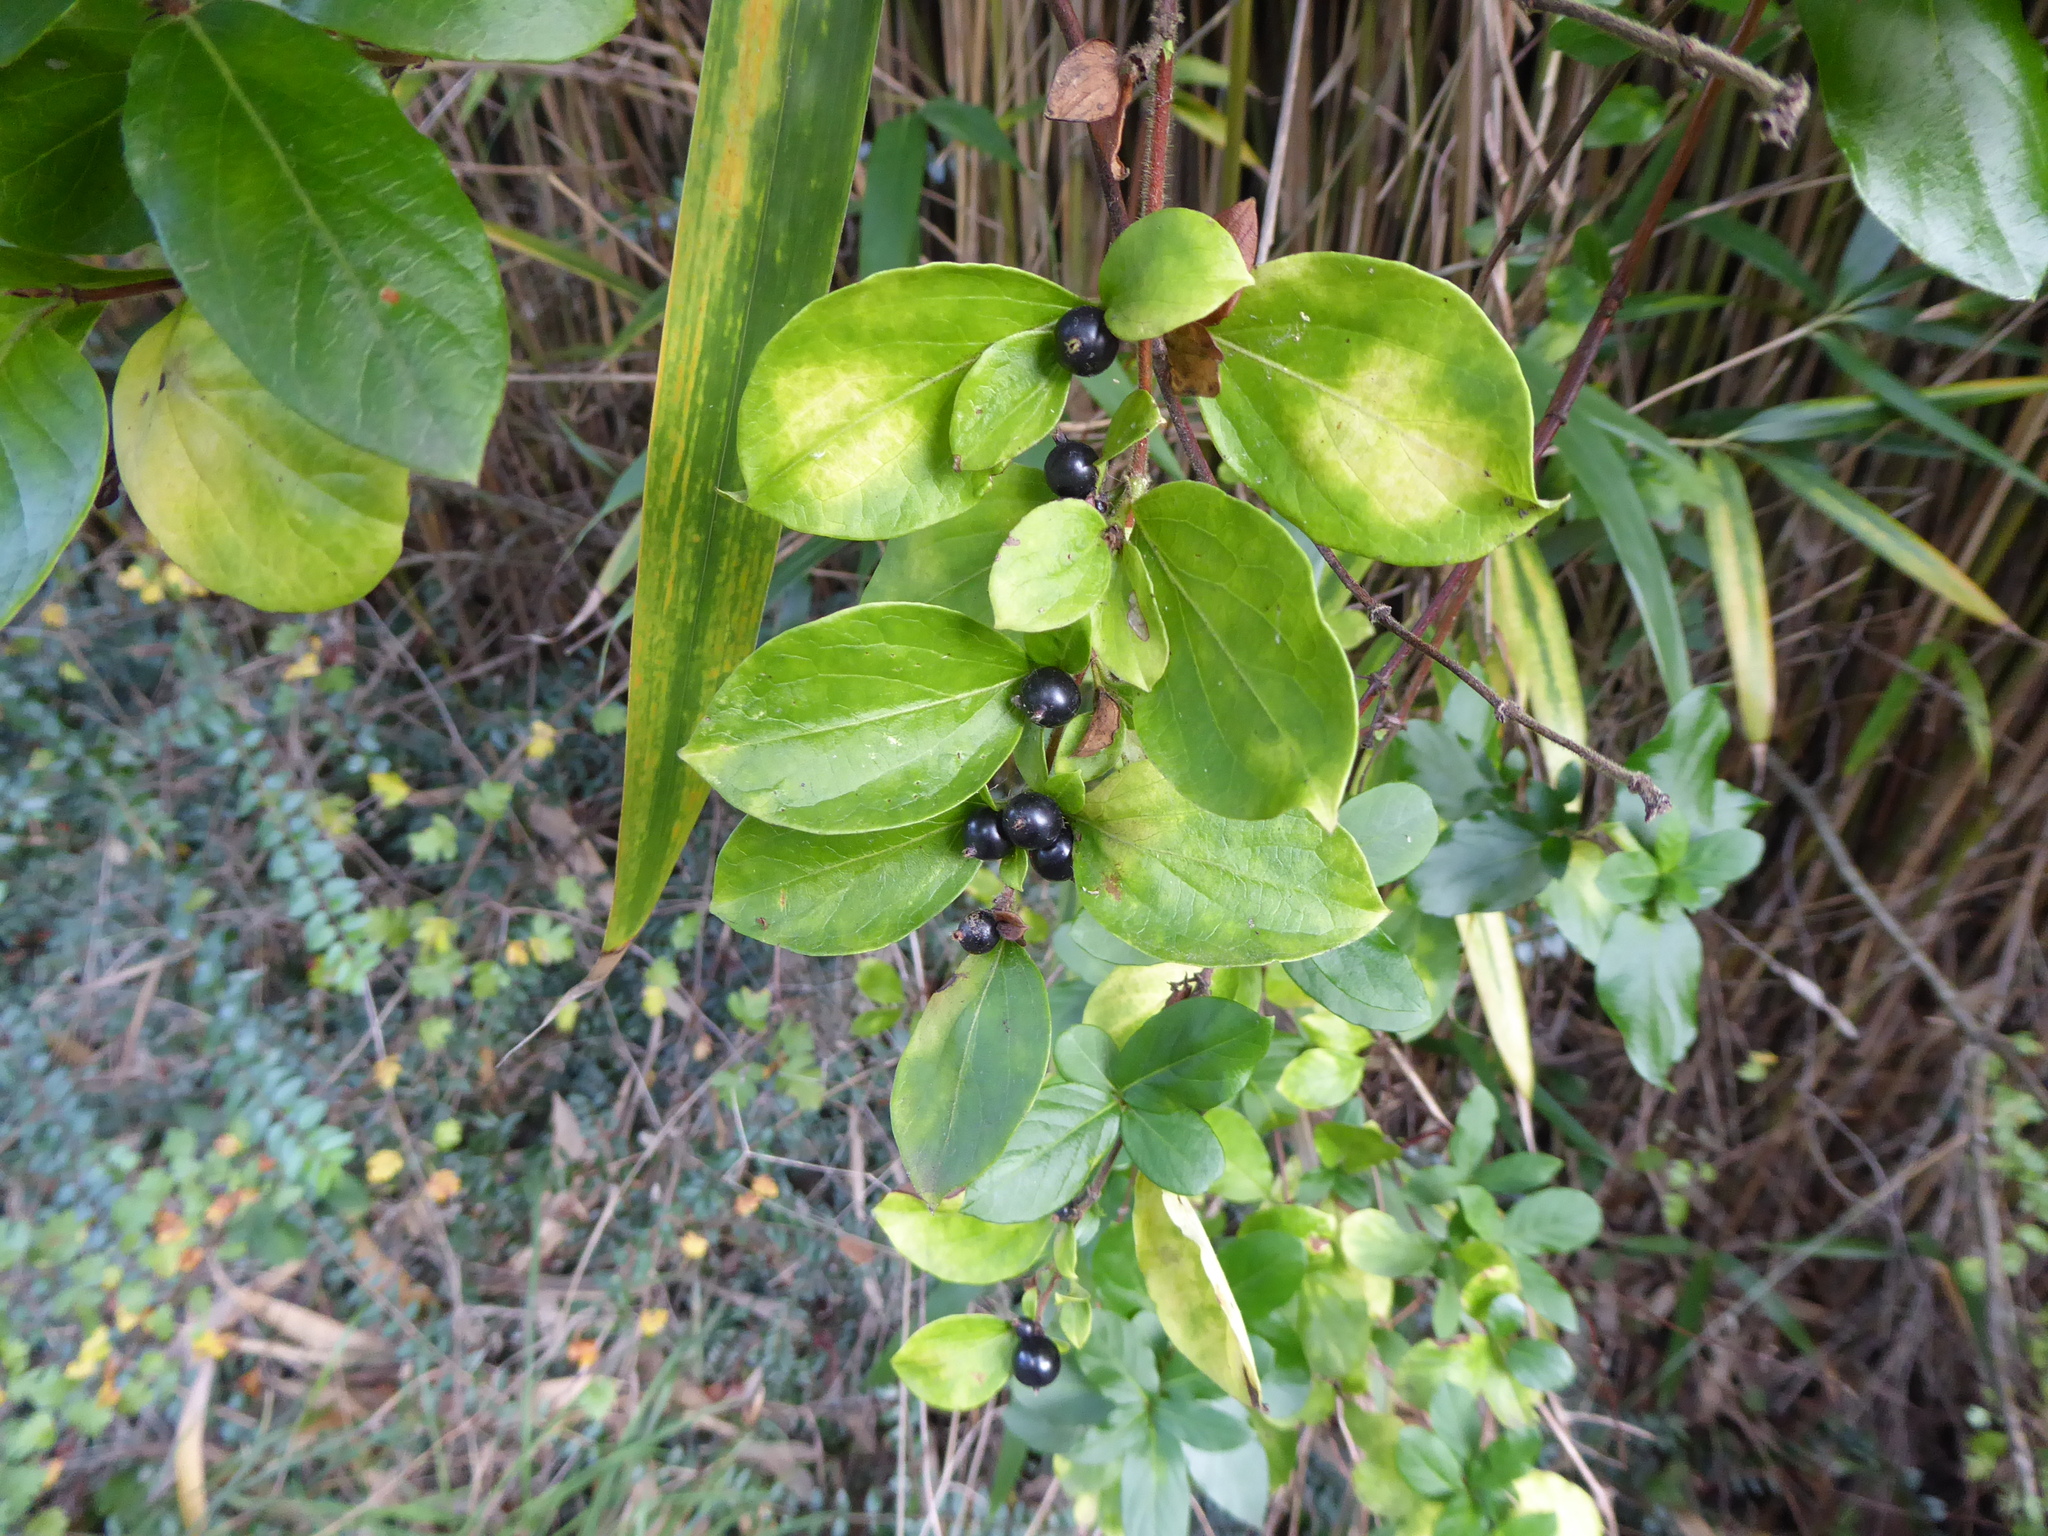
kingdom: Plantae
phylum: Tracheophyta
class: Magnoliopsida
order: Dipsacales
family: Caprifoliaceae
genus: Lonicera
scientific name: Lonicera japonica
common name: Japanese honeysuckle
